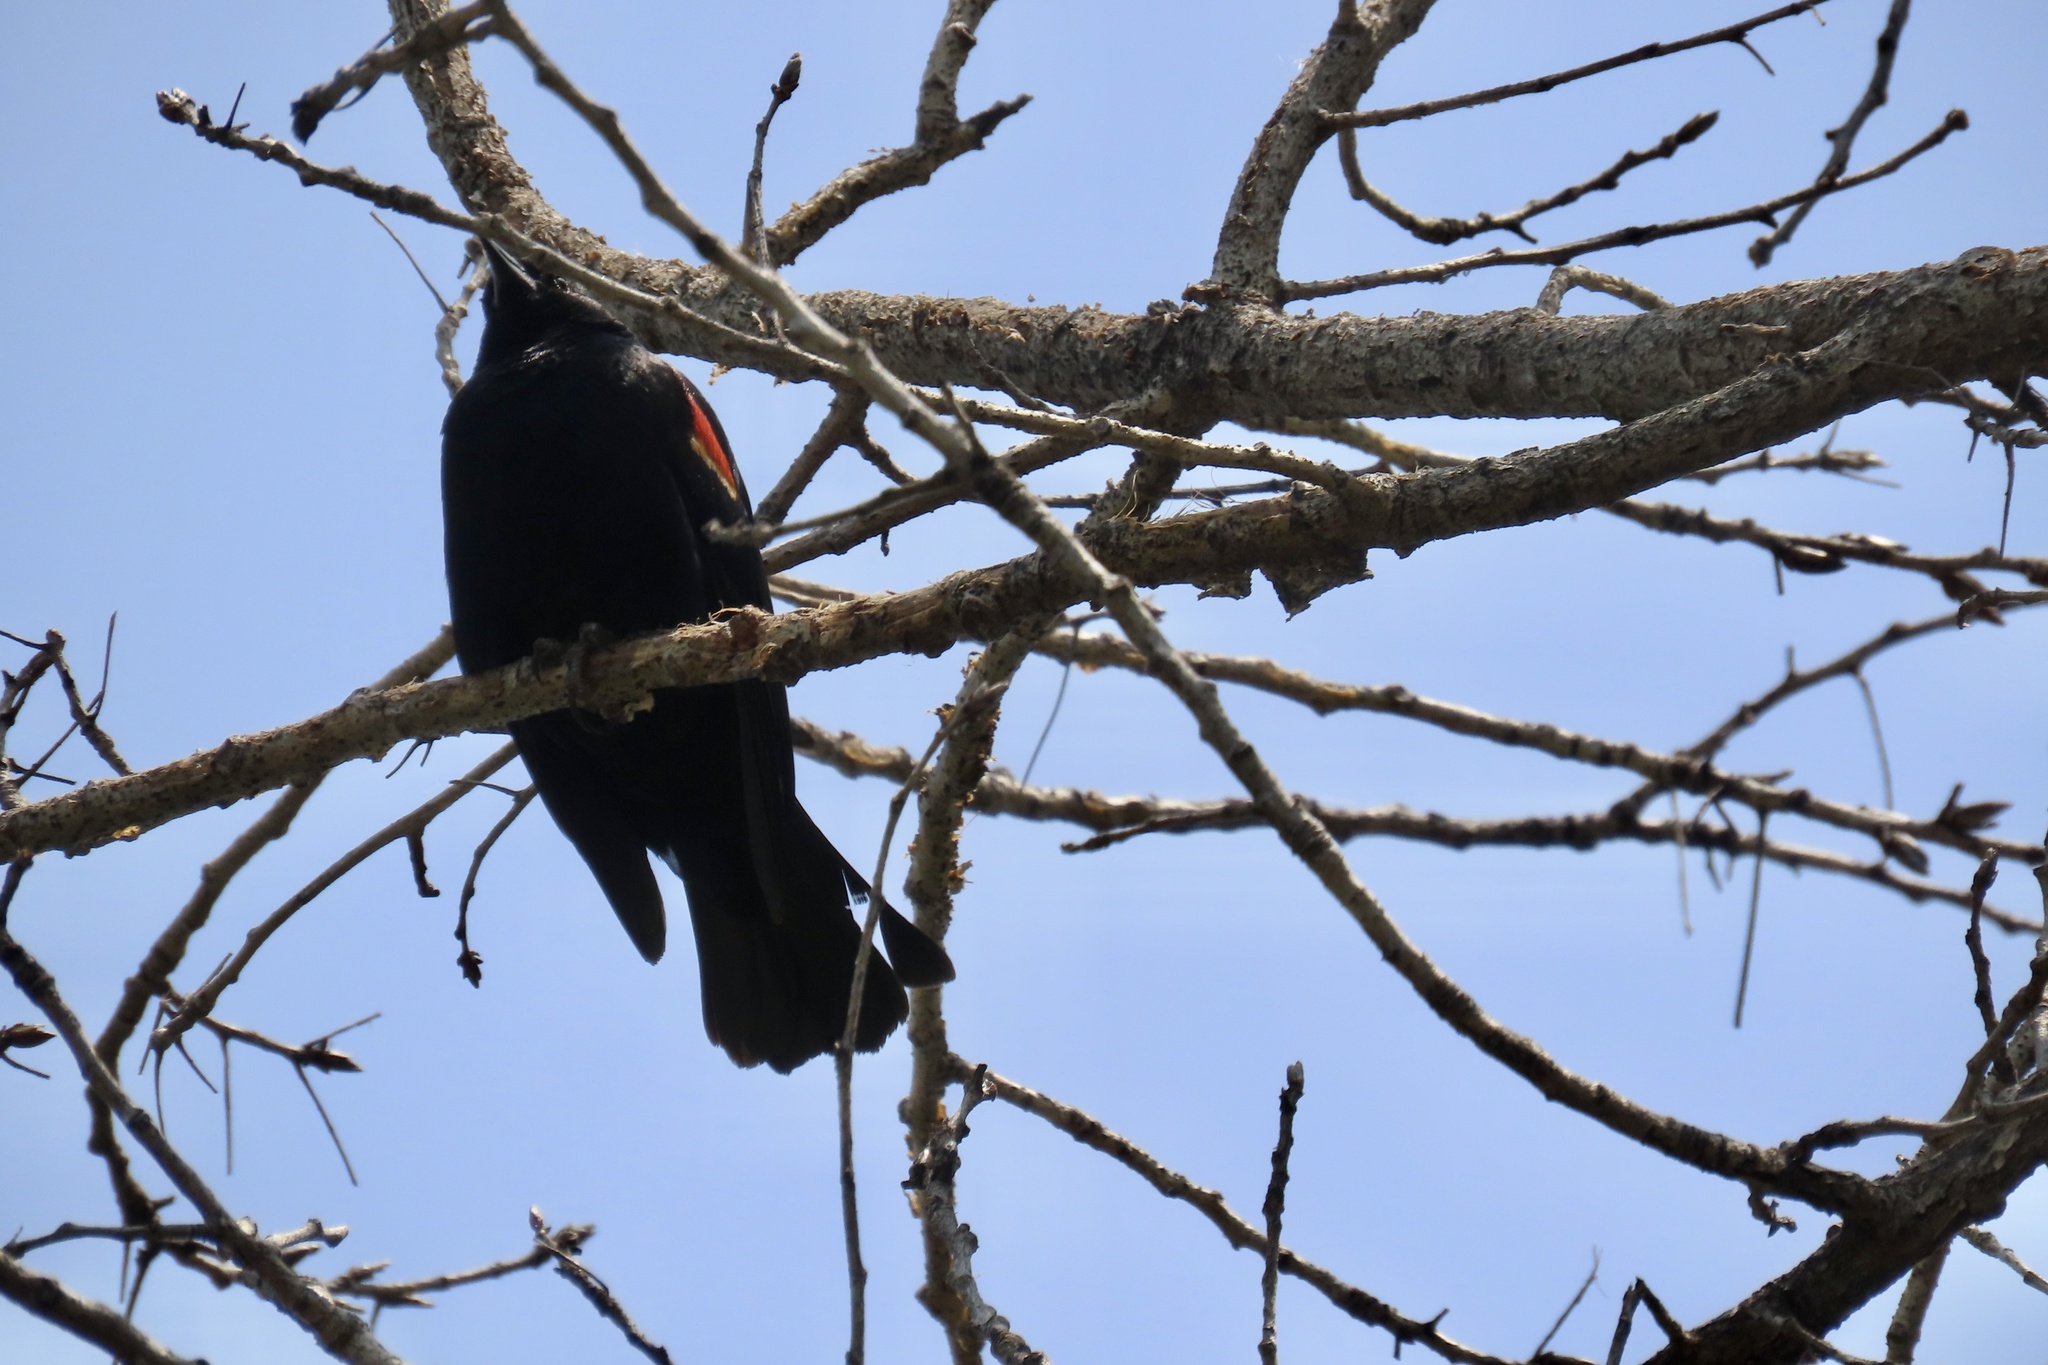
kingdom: Animalia
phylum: Chordata
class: Aves
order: Passeriformes
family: Icteridae
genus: Agelaius
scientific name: Agelaius phoeniceus
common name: Red-winged blackbird
